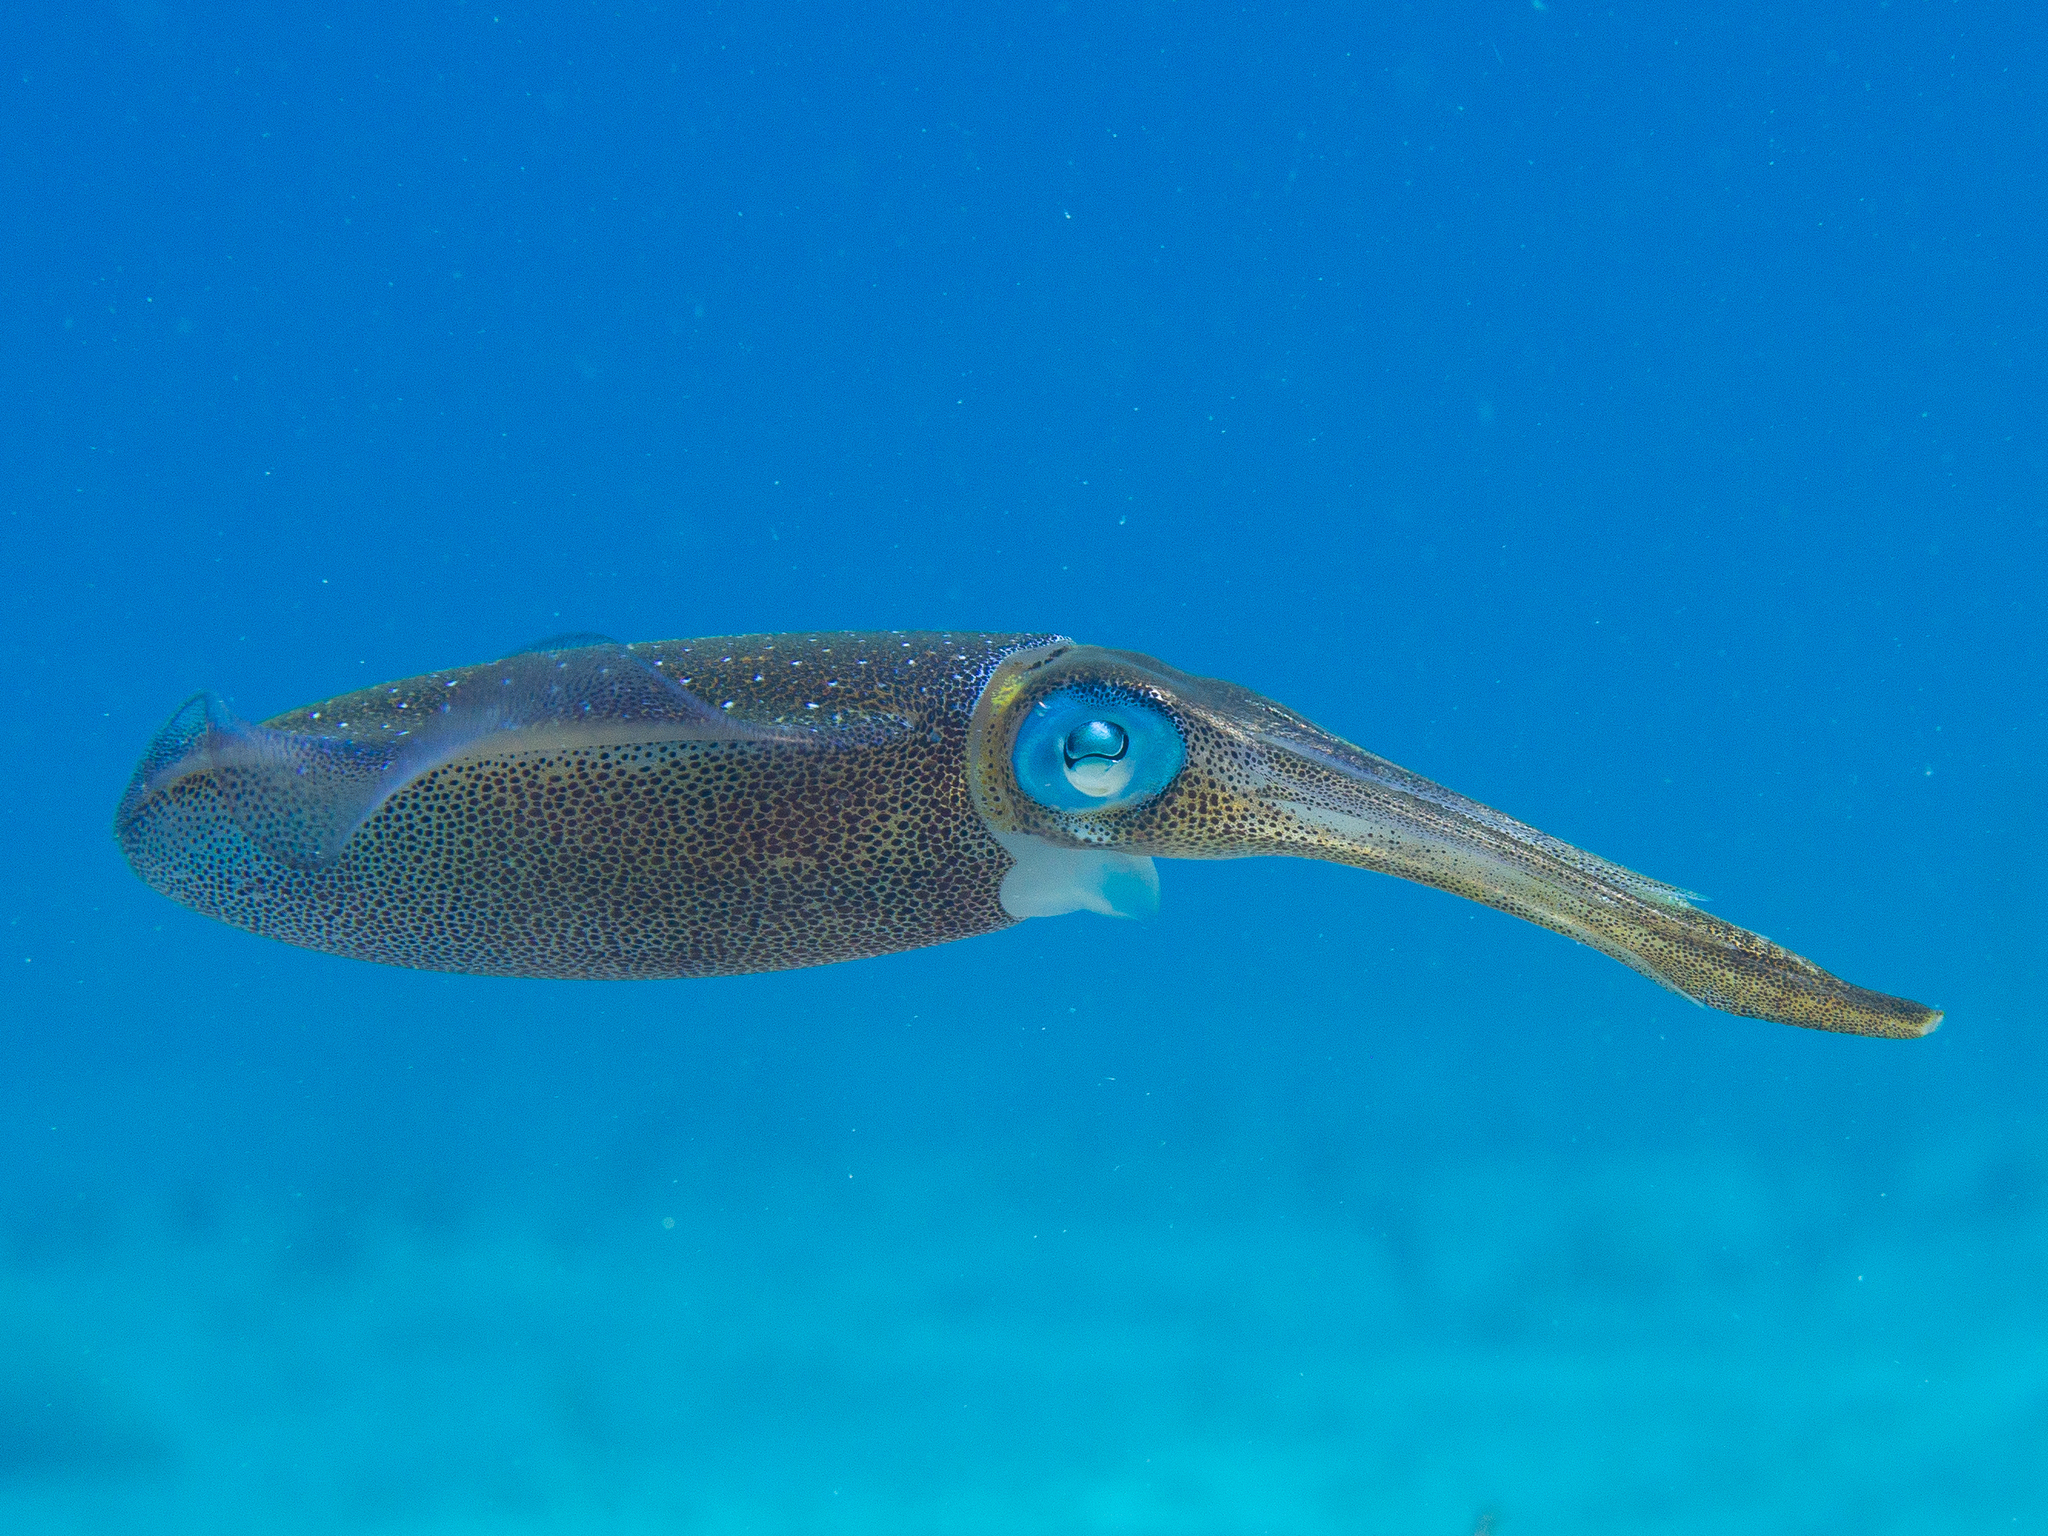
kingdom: Animalia
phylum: Mollusca
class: Cephalopoda
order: Myopsida
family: Loliginidae
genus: Sepioteuthis
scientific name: Sepioteuthis sepioidea
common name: Caribbean reef squid
